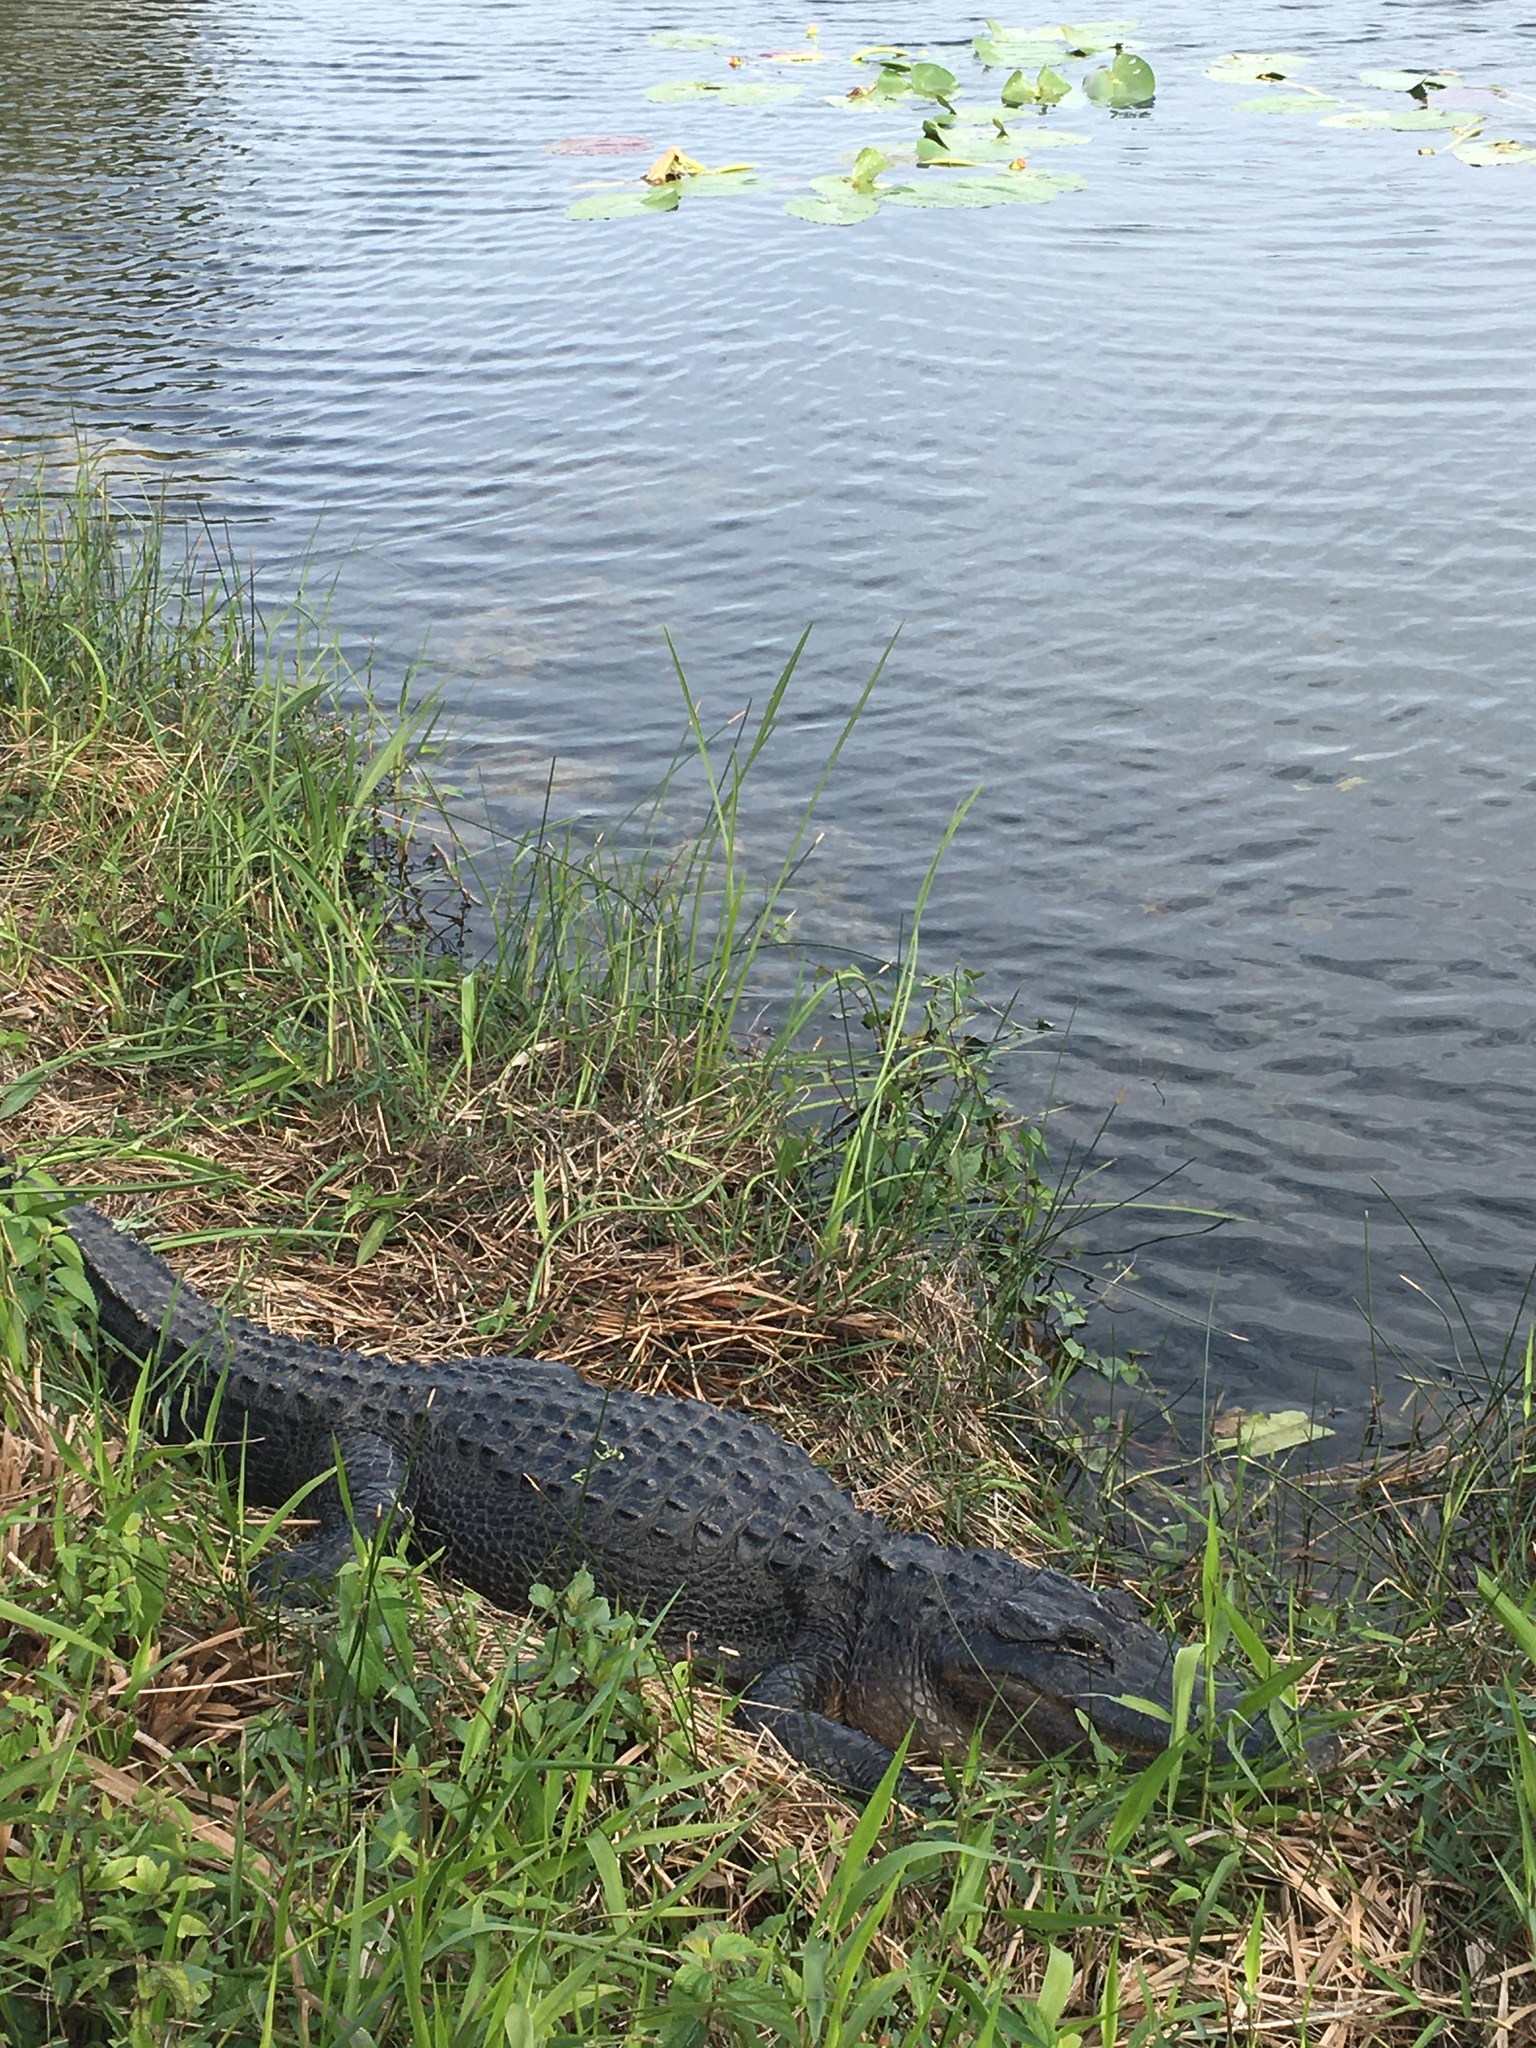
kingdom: Animalia
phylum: Chordata
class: Crocodylia
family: Alligatoridae
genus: Alligator
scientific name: Alligator mississippiensis
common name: American alligator
